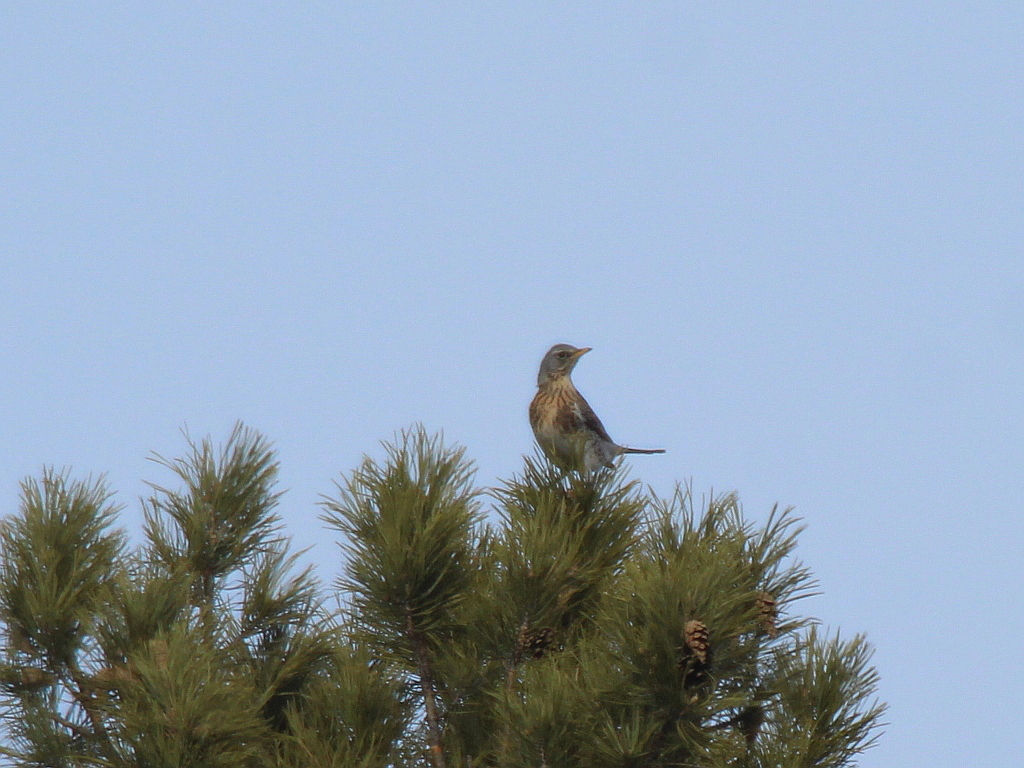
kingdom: Animalia
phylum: Chordata
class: Aves
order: Passeriformes
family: Turdidae
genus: Turdus
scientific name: Turdus pilaris
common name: Fieldfare
